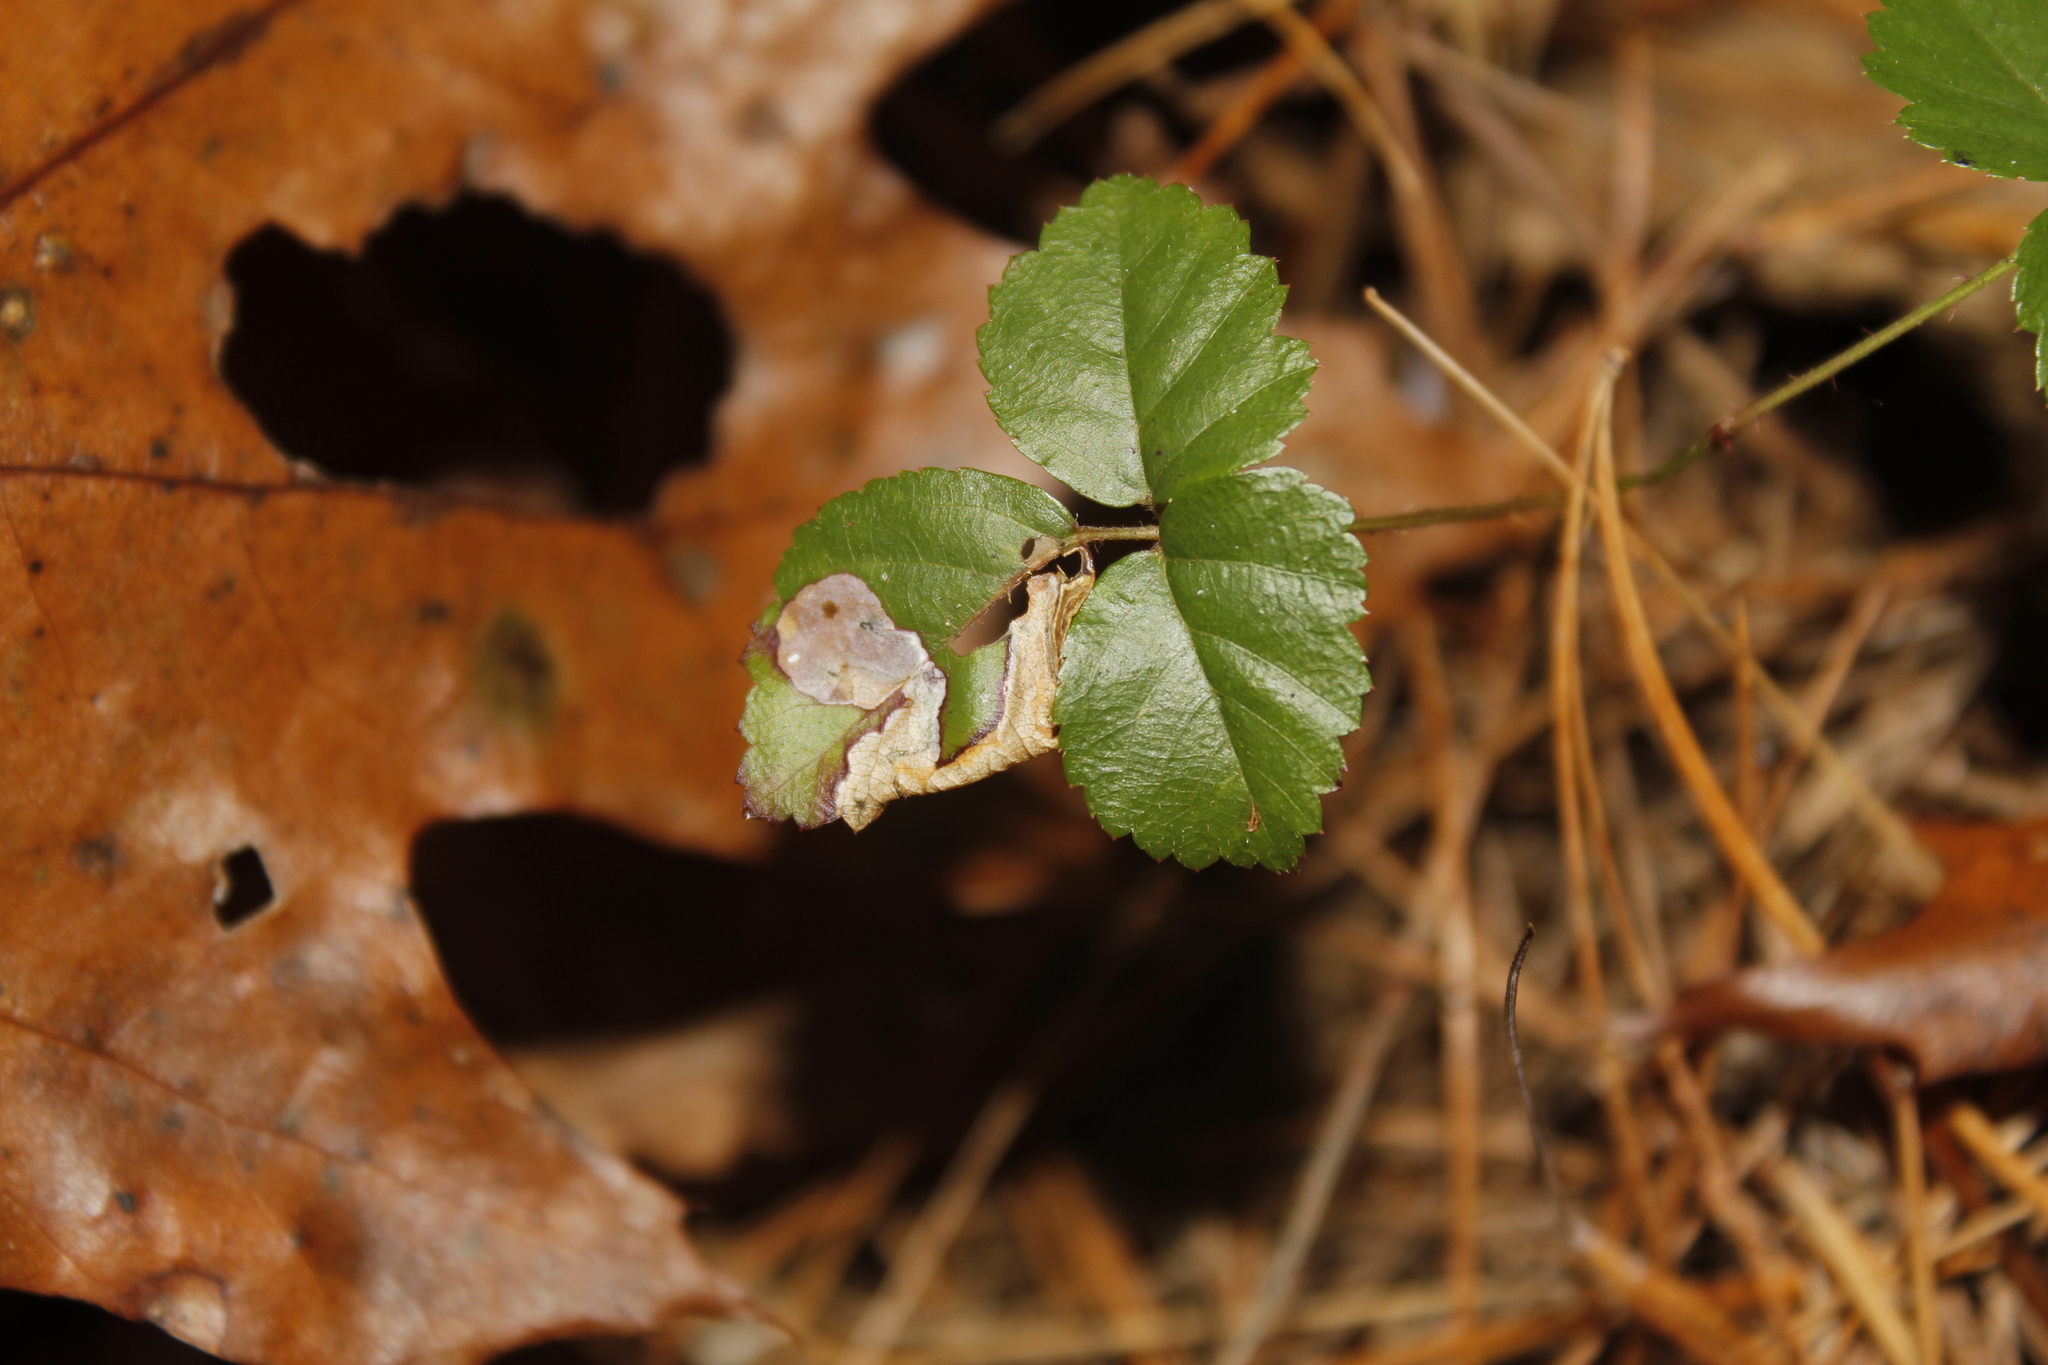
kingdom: Animalia
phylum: Arthropoda
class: Insecta
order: Lepidoptera
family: Nepticulidae
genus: Ectoedemia
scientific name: Ectoedemia rubifoliella
